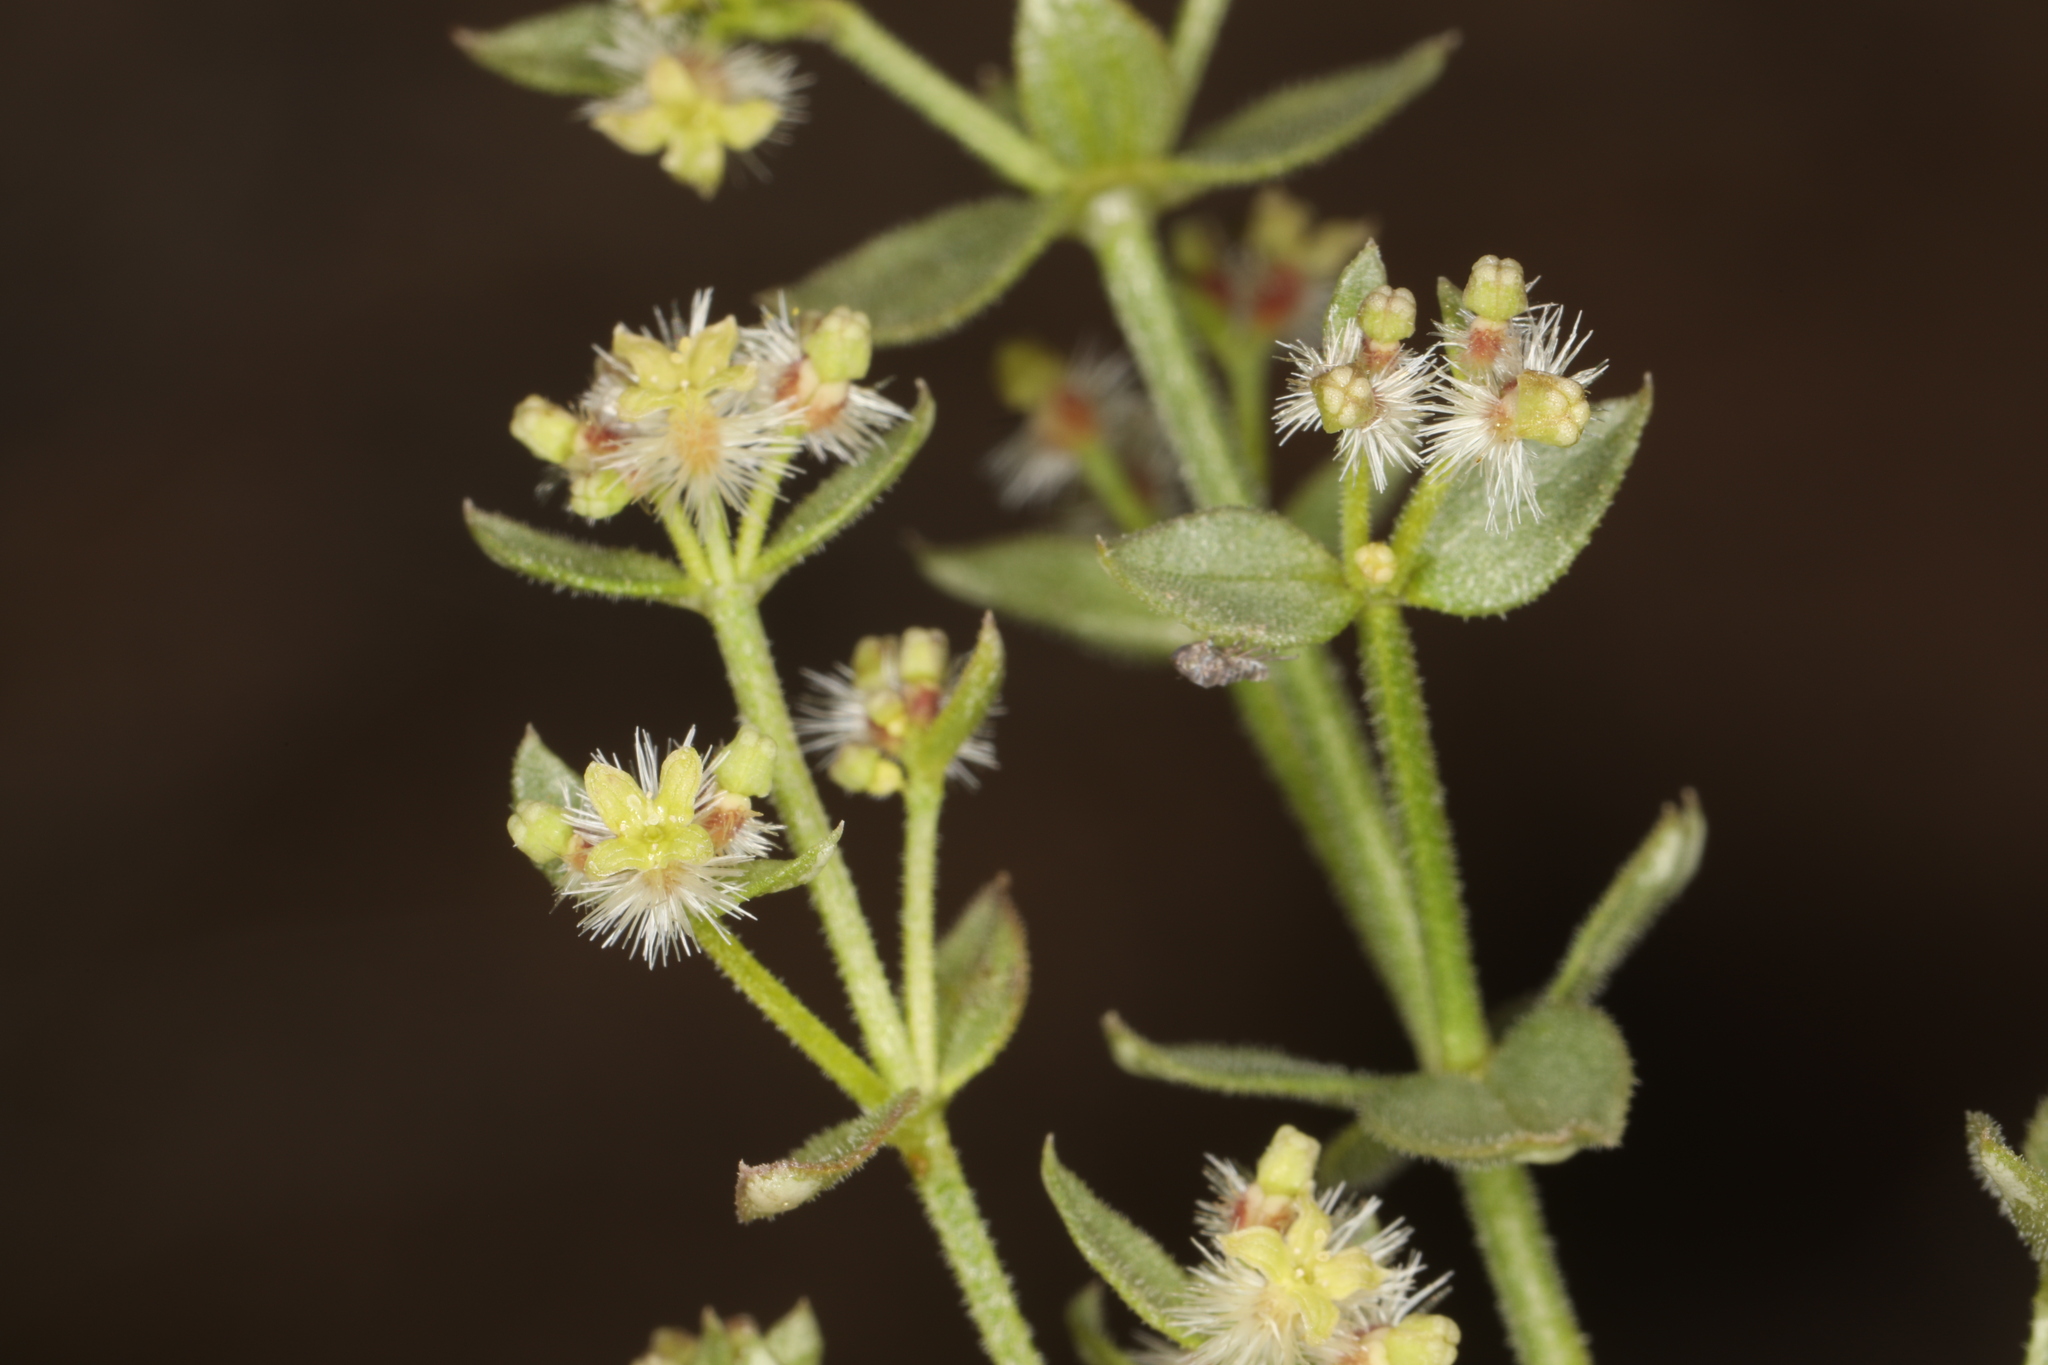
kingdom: Plantae
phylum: Tracheophyta
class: Magnoliopsida
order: Gentianales
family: Rubiaceae
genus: Galium
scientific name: Galium multiflorum
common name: Many-flowered bedstraw
